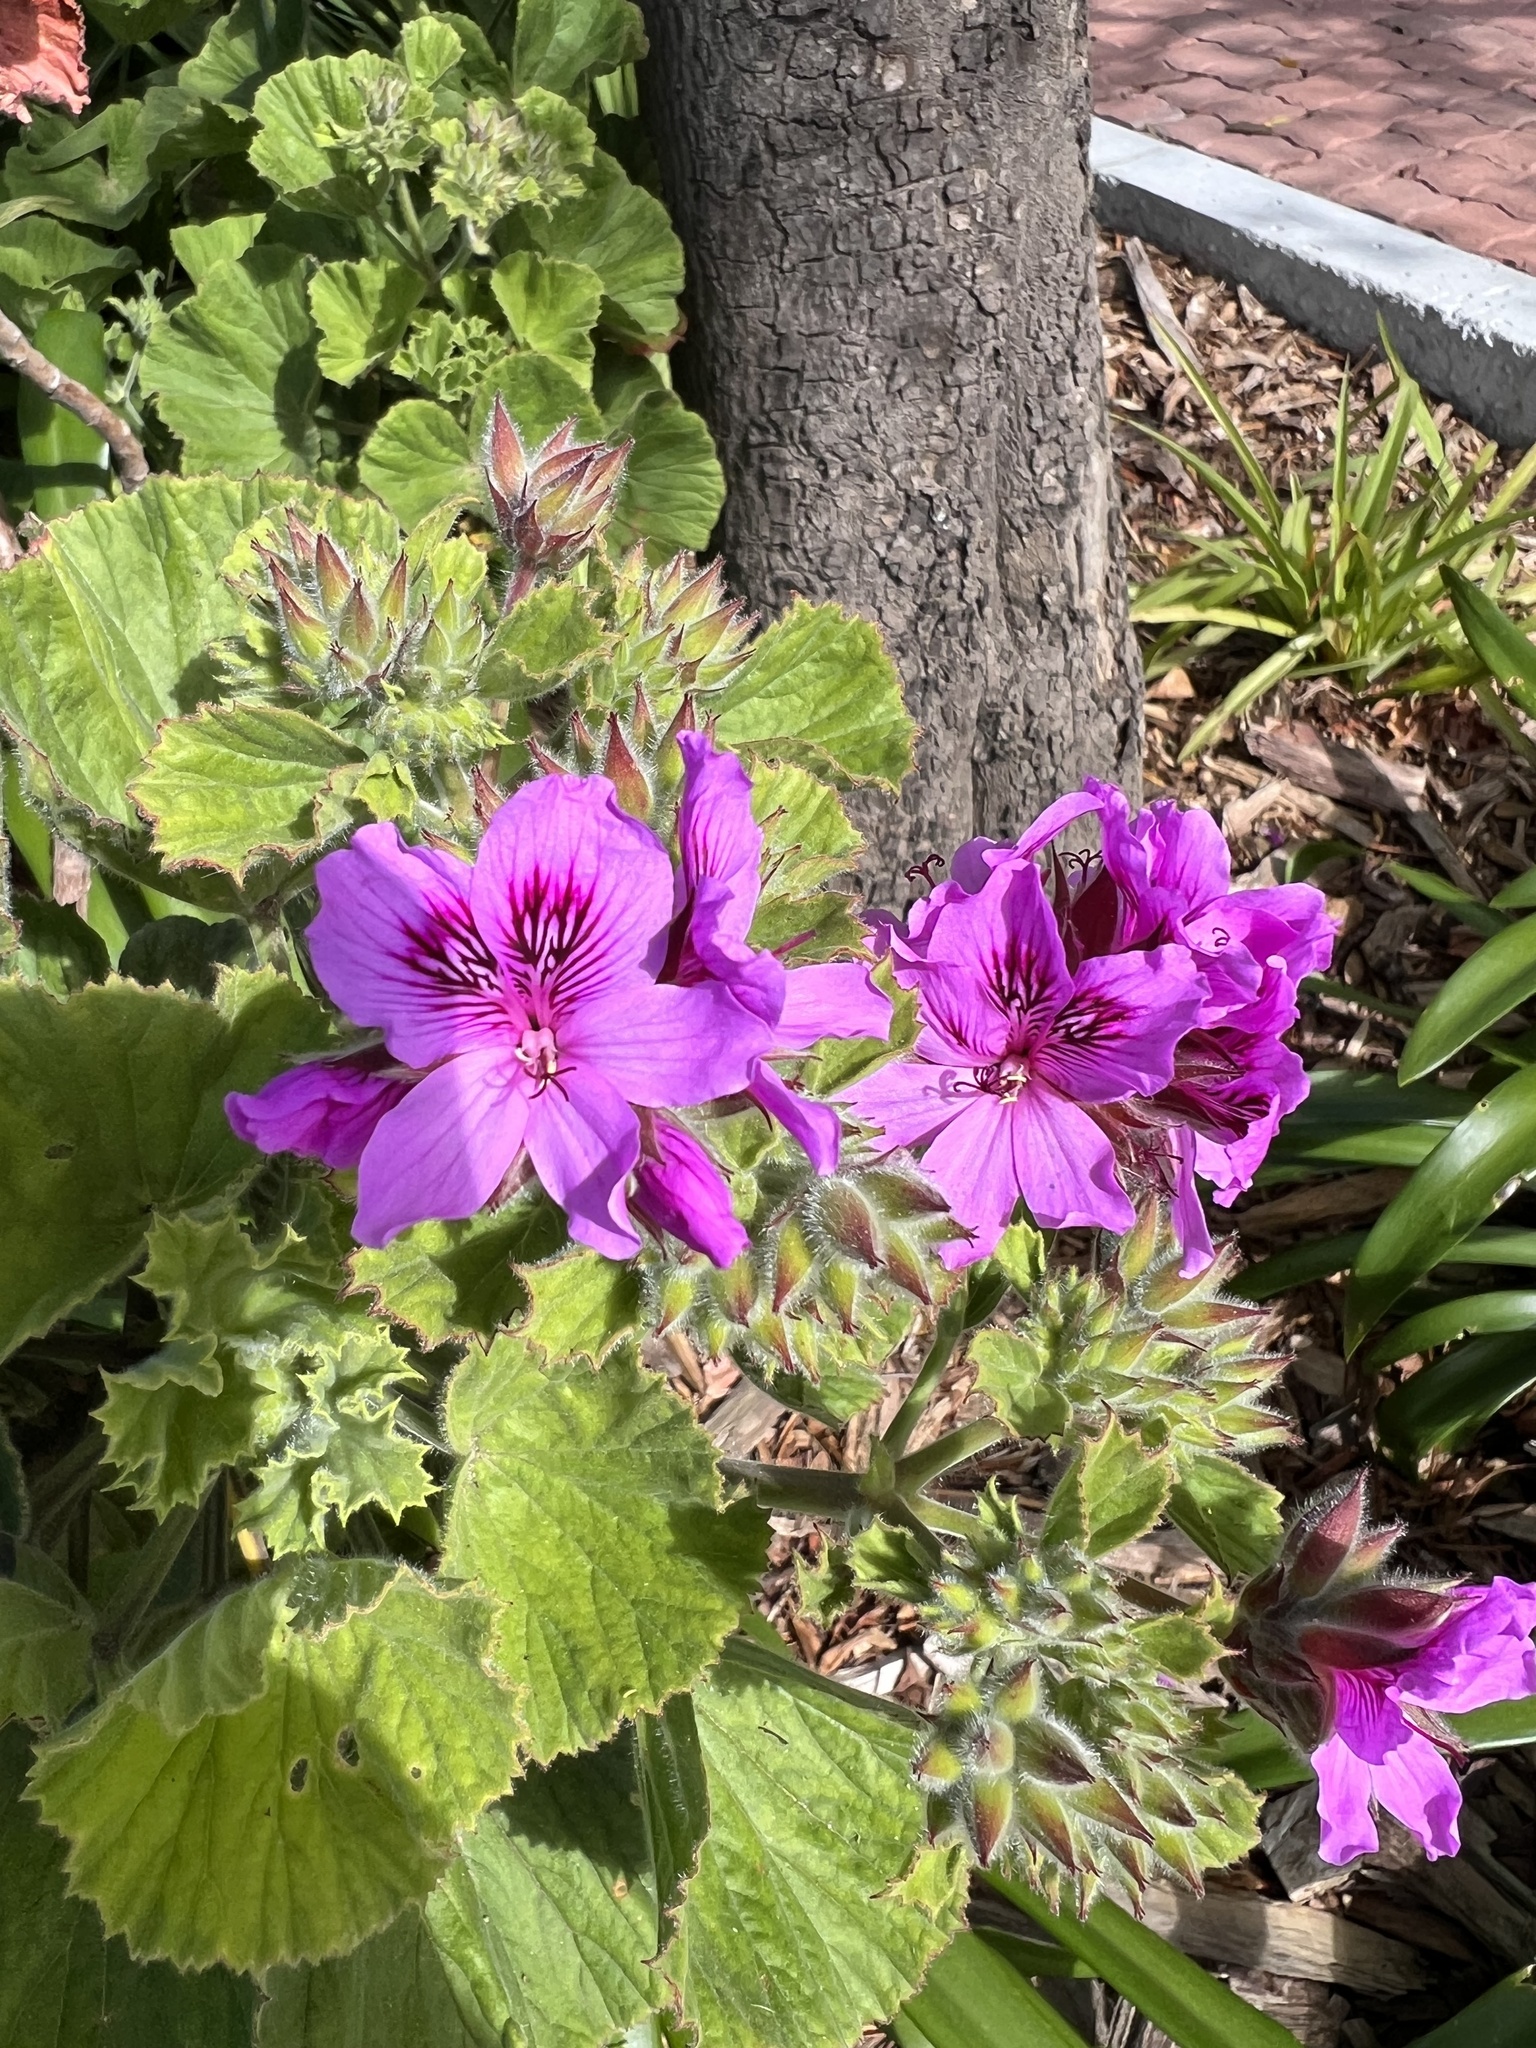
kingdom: Plantae
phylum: Tracheophyta
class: Magnoliopsida
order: Geraniales
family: Geraniaceae
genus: Pelargonium
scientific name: Pelargonium cucullatum
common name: Tree pelargonium
